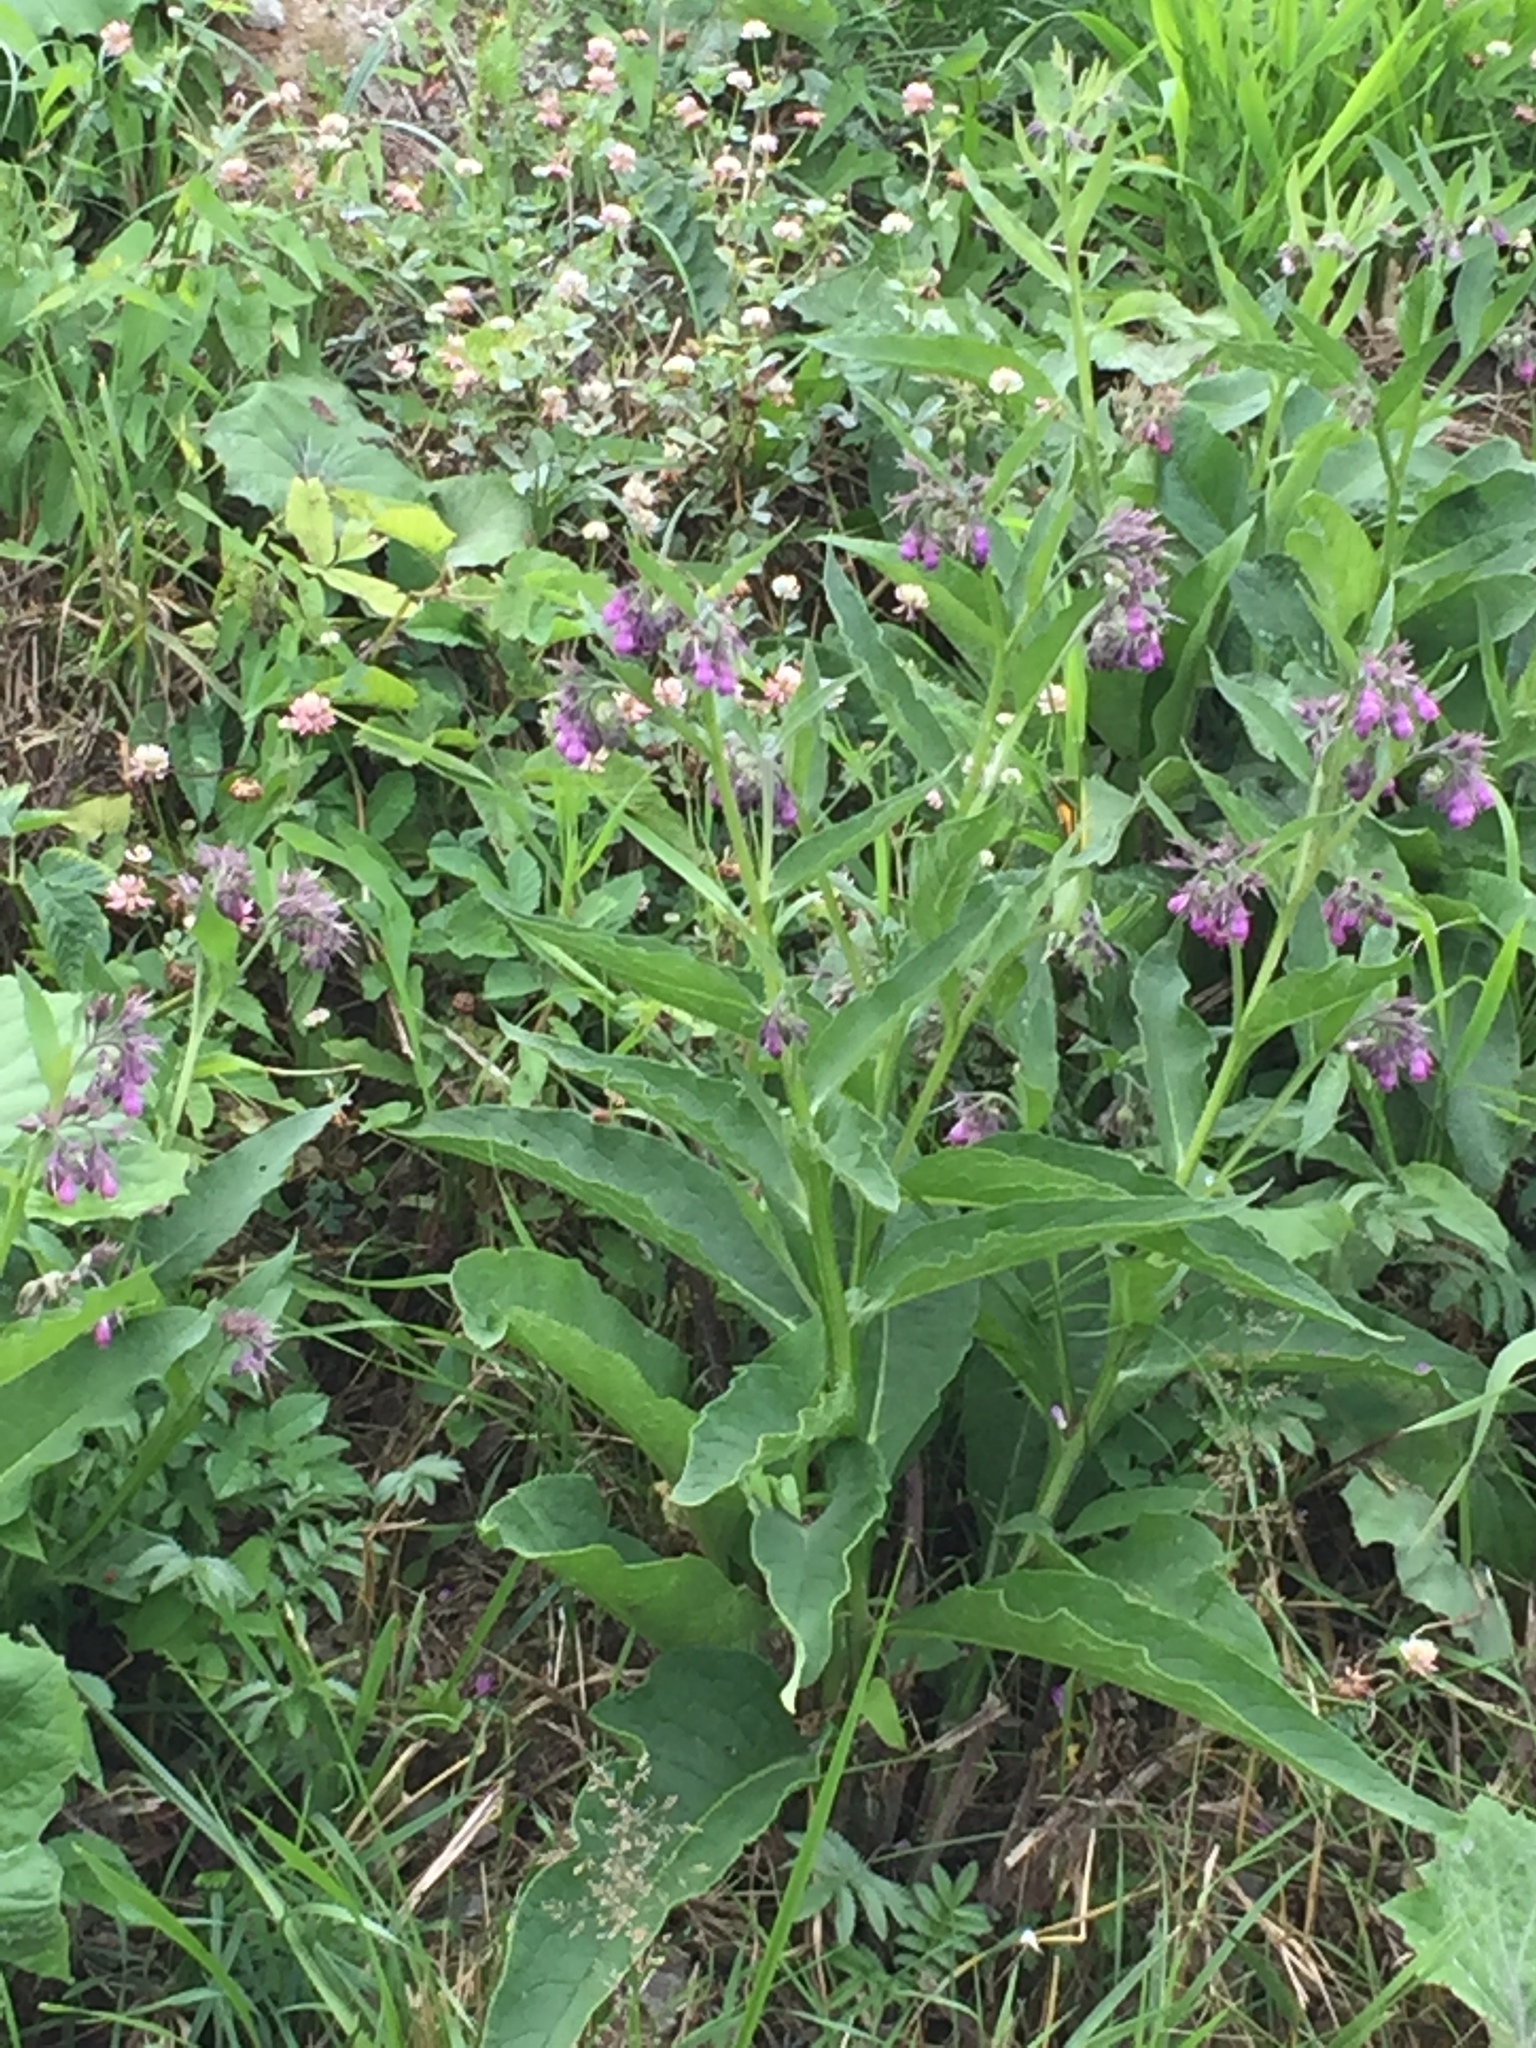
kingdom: Plantae
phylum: Tracheophyta
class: Magnoliopsida
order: Boraginales
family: Boraginaceae
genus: Symphytum
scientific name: Symphytum officinale
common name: Common comfrey
